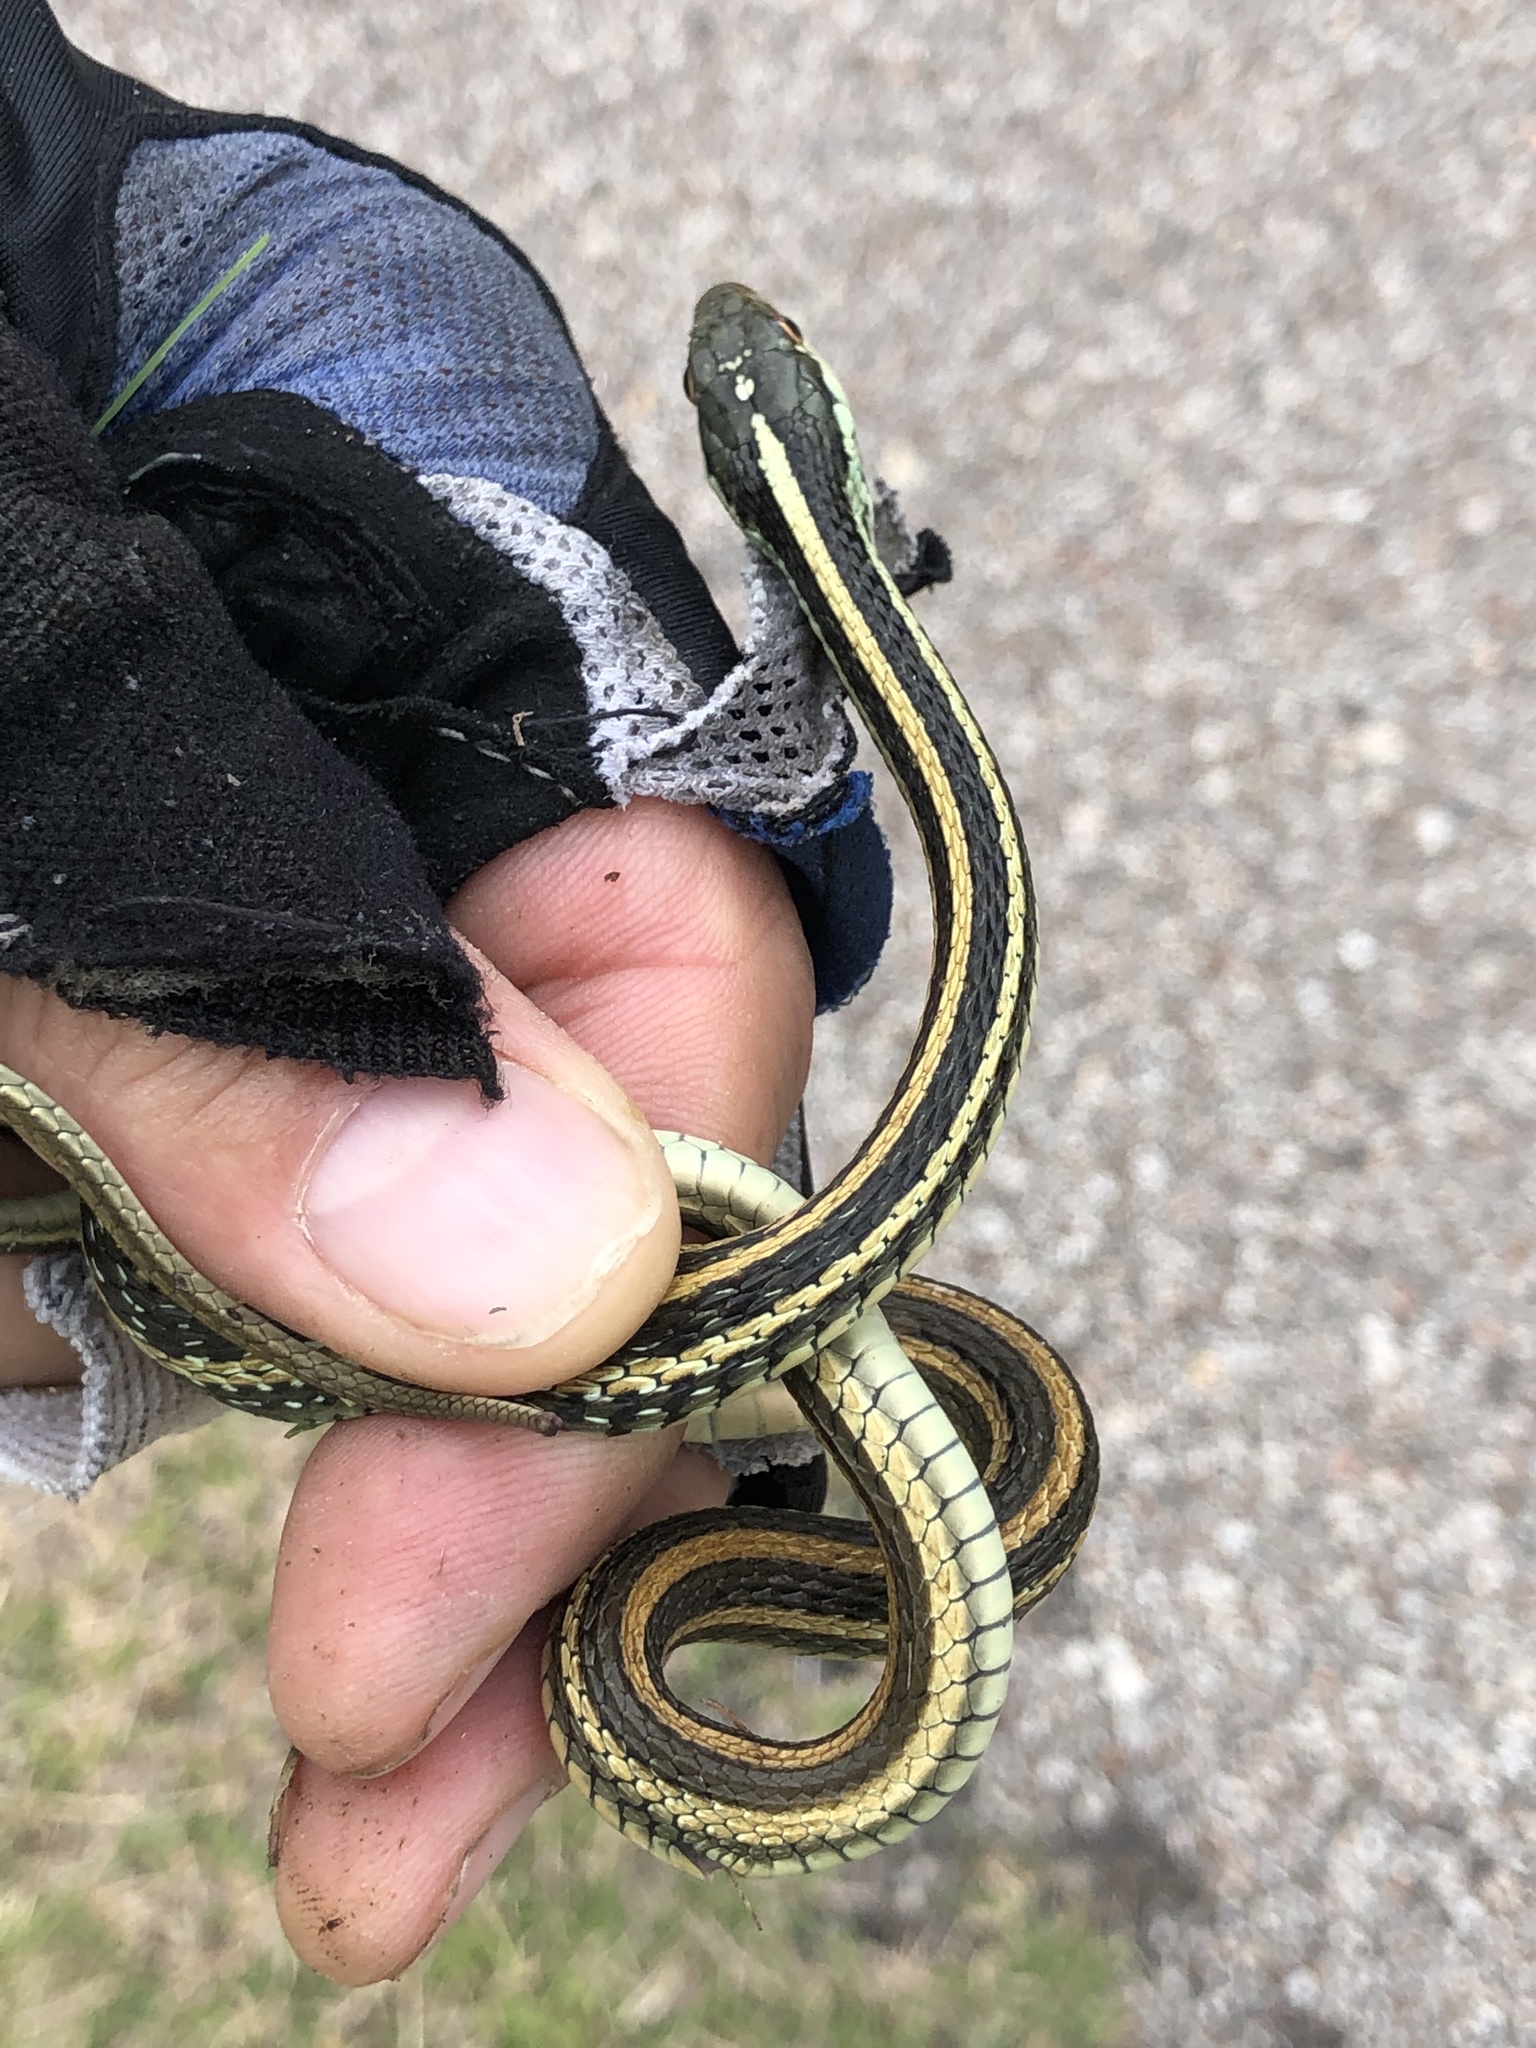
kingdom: Animalia
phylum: Chordata
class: Squamata
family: Colubridae
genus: Thamnophis
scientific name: Thamnophis proximus
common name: Western ribbon snake
